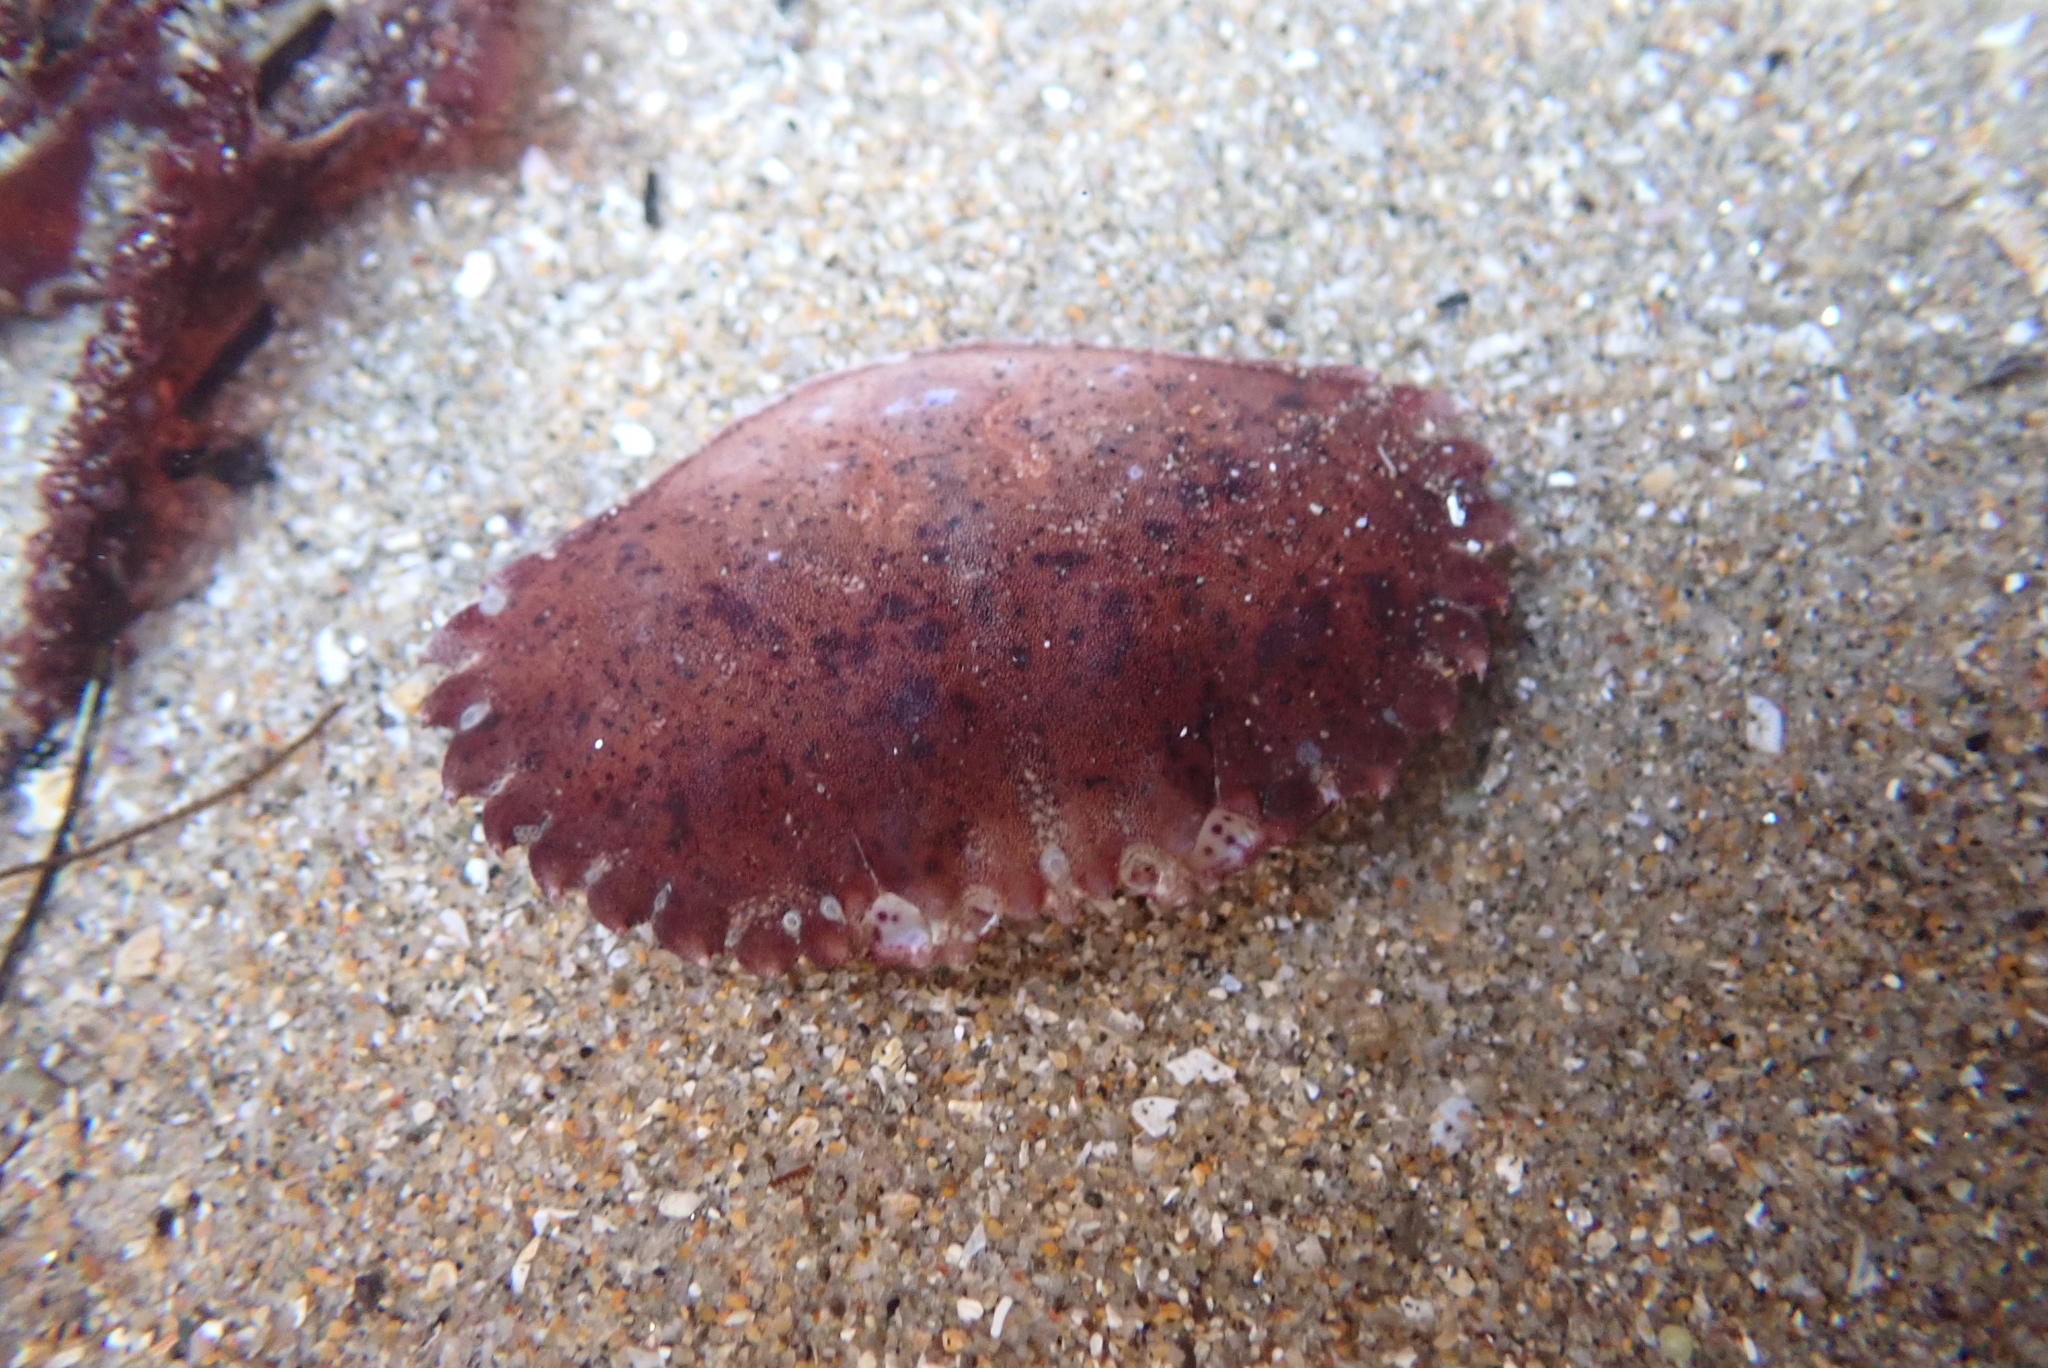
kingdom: Animalia
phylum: Arthropoda
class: Malacostraca
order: Decapoda
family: Cancridae
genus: Romaleon
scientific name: Romaleon antennarium
